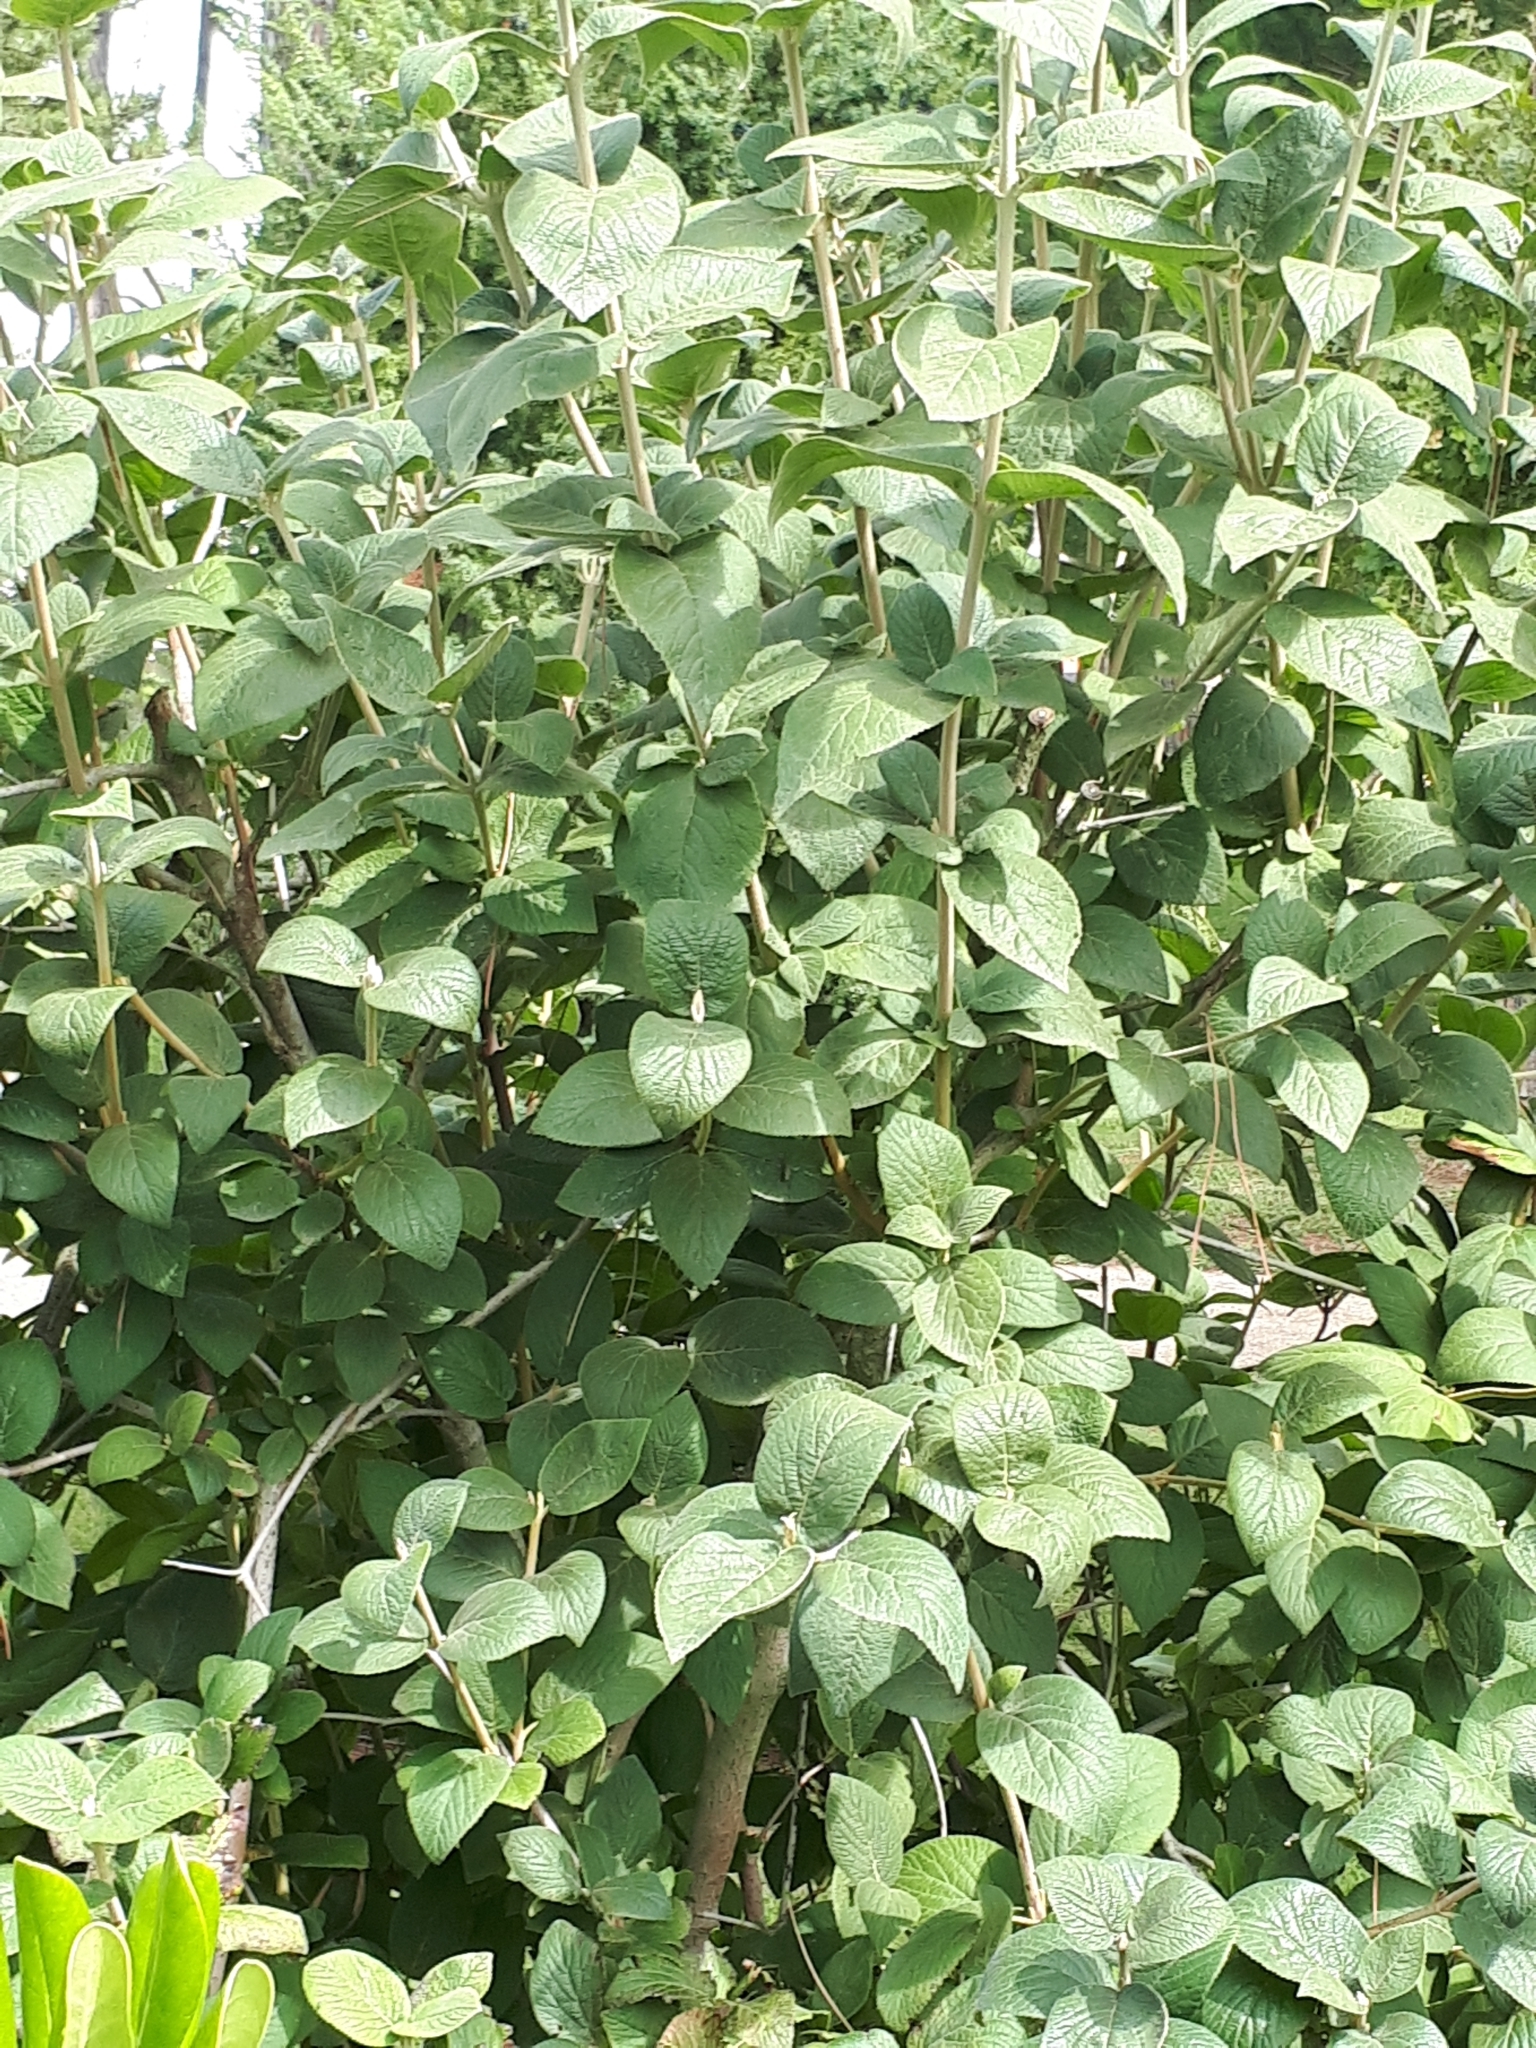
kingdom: Plantae
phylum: Tracheophyta
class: Magnoliopsida
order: Dipsacales
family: Viburnaceae
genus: Viburnum
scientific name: Viburnum lantana
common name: Wayfaring tree
